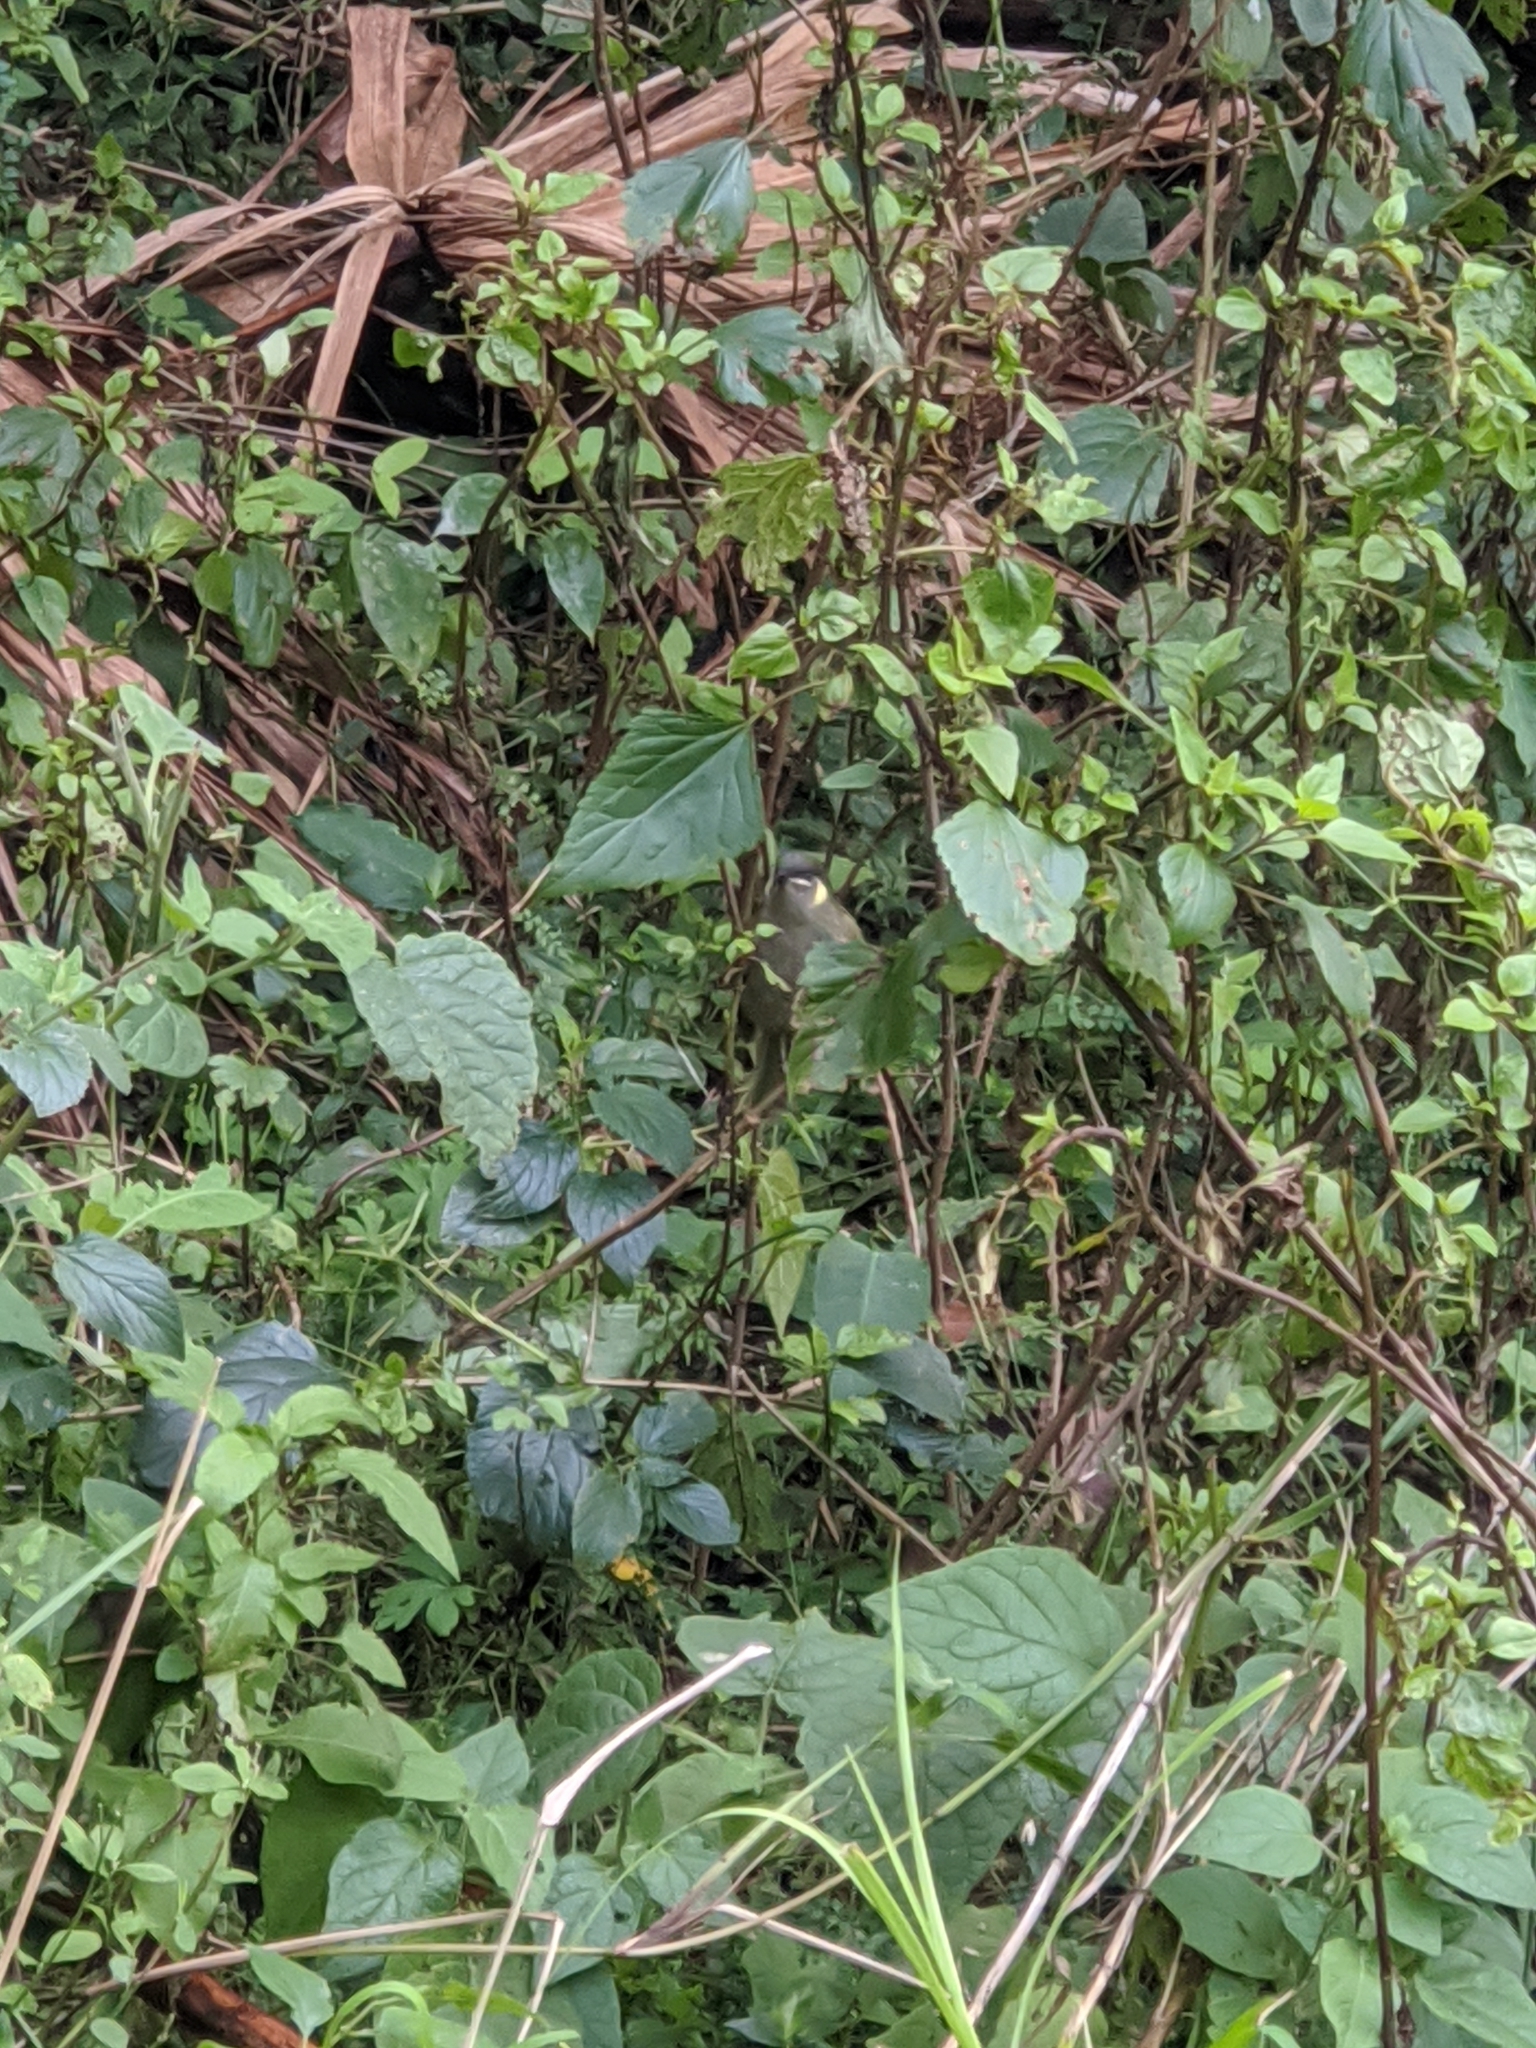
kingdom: Animalia
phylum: Chordata
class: Aves
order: Passeriformes
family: Meliphagidae
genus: Meliphaga
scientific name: Meliphaga lewinii
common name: Lewin's honeyeater
